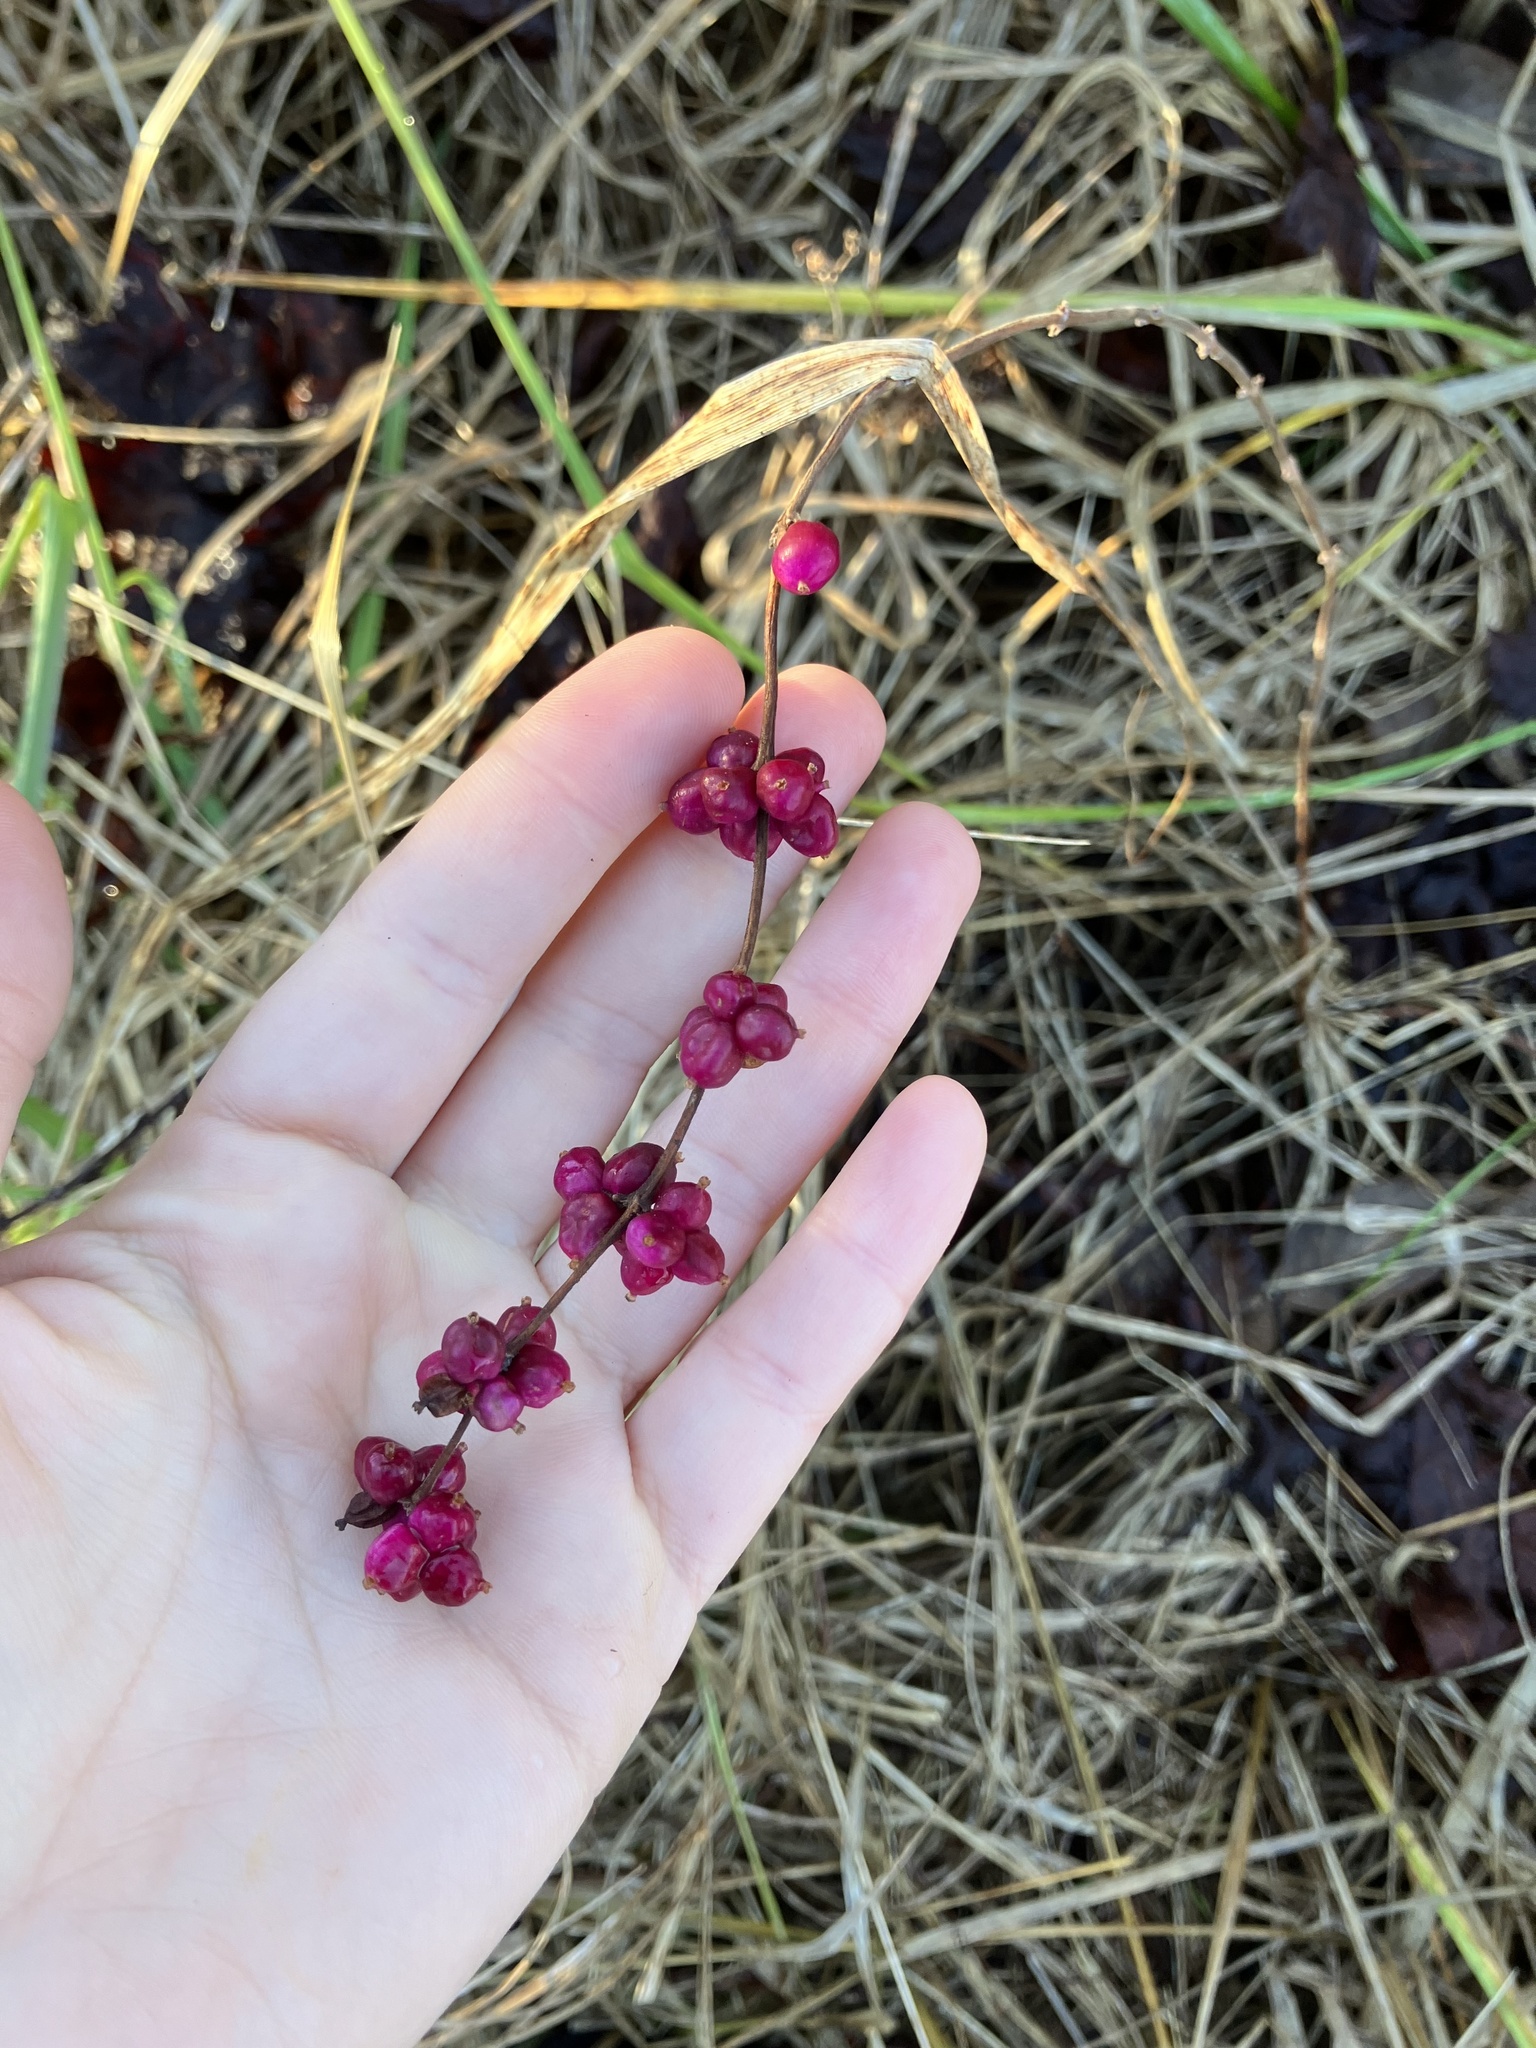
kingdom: Plantae
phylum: Tracheophyta
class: Magnoliopsida
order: Dipsacales
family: Caprifoliaceae
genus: Symphoricarpos
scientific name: Symphoricarpos orbiculatus
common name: Coralberry
